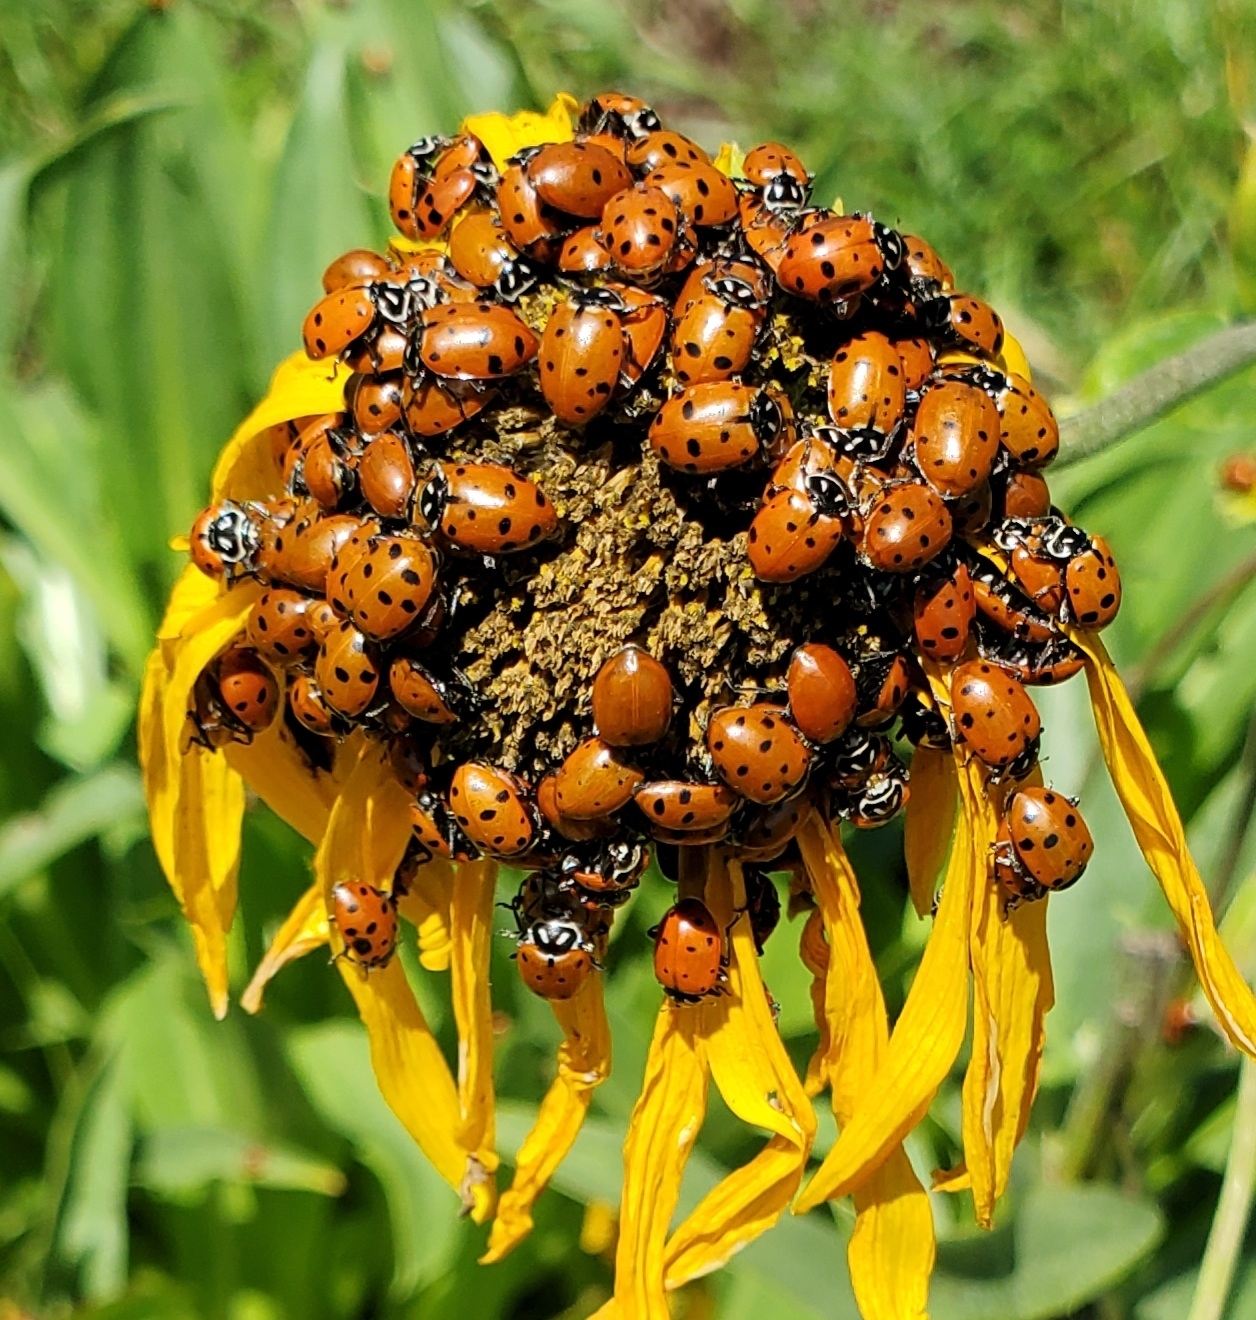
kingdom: Animalia
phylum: Arthropoda
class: Insecta
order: Coleoptera
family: Coccinellidae
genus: Hippodamia
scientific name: Hippodamia convergens
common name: Convergent lady beetle
